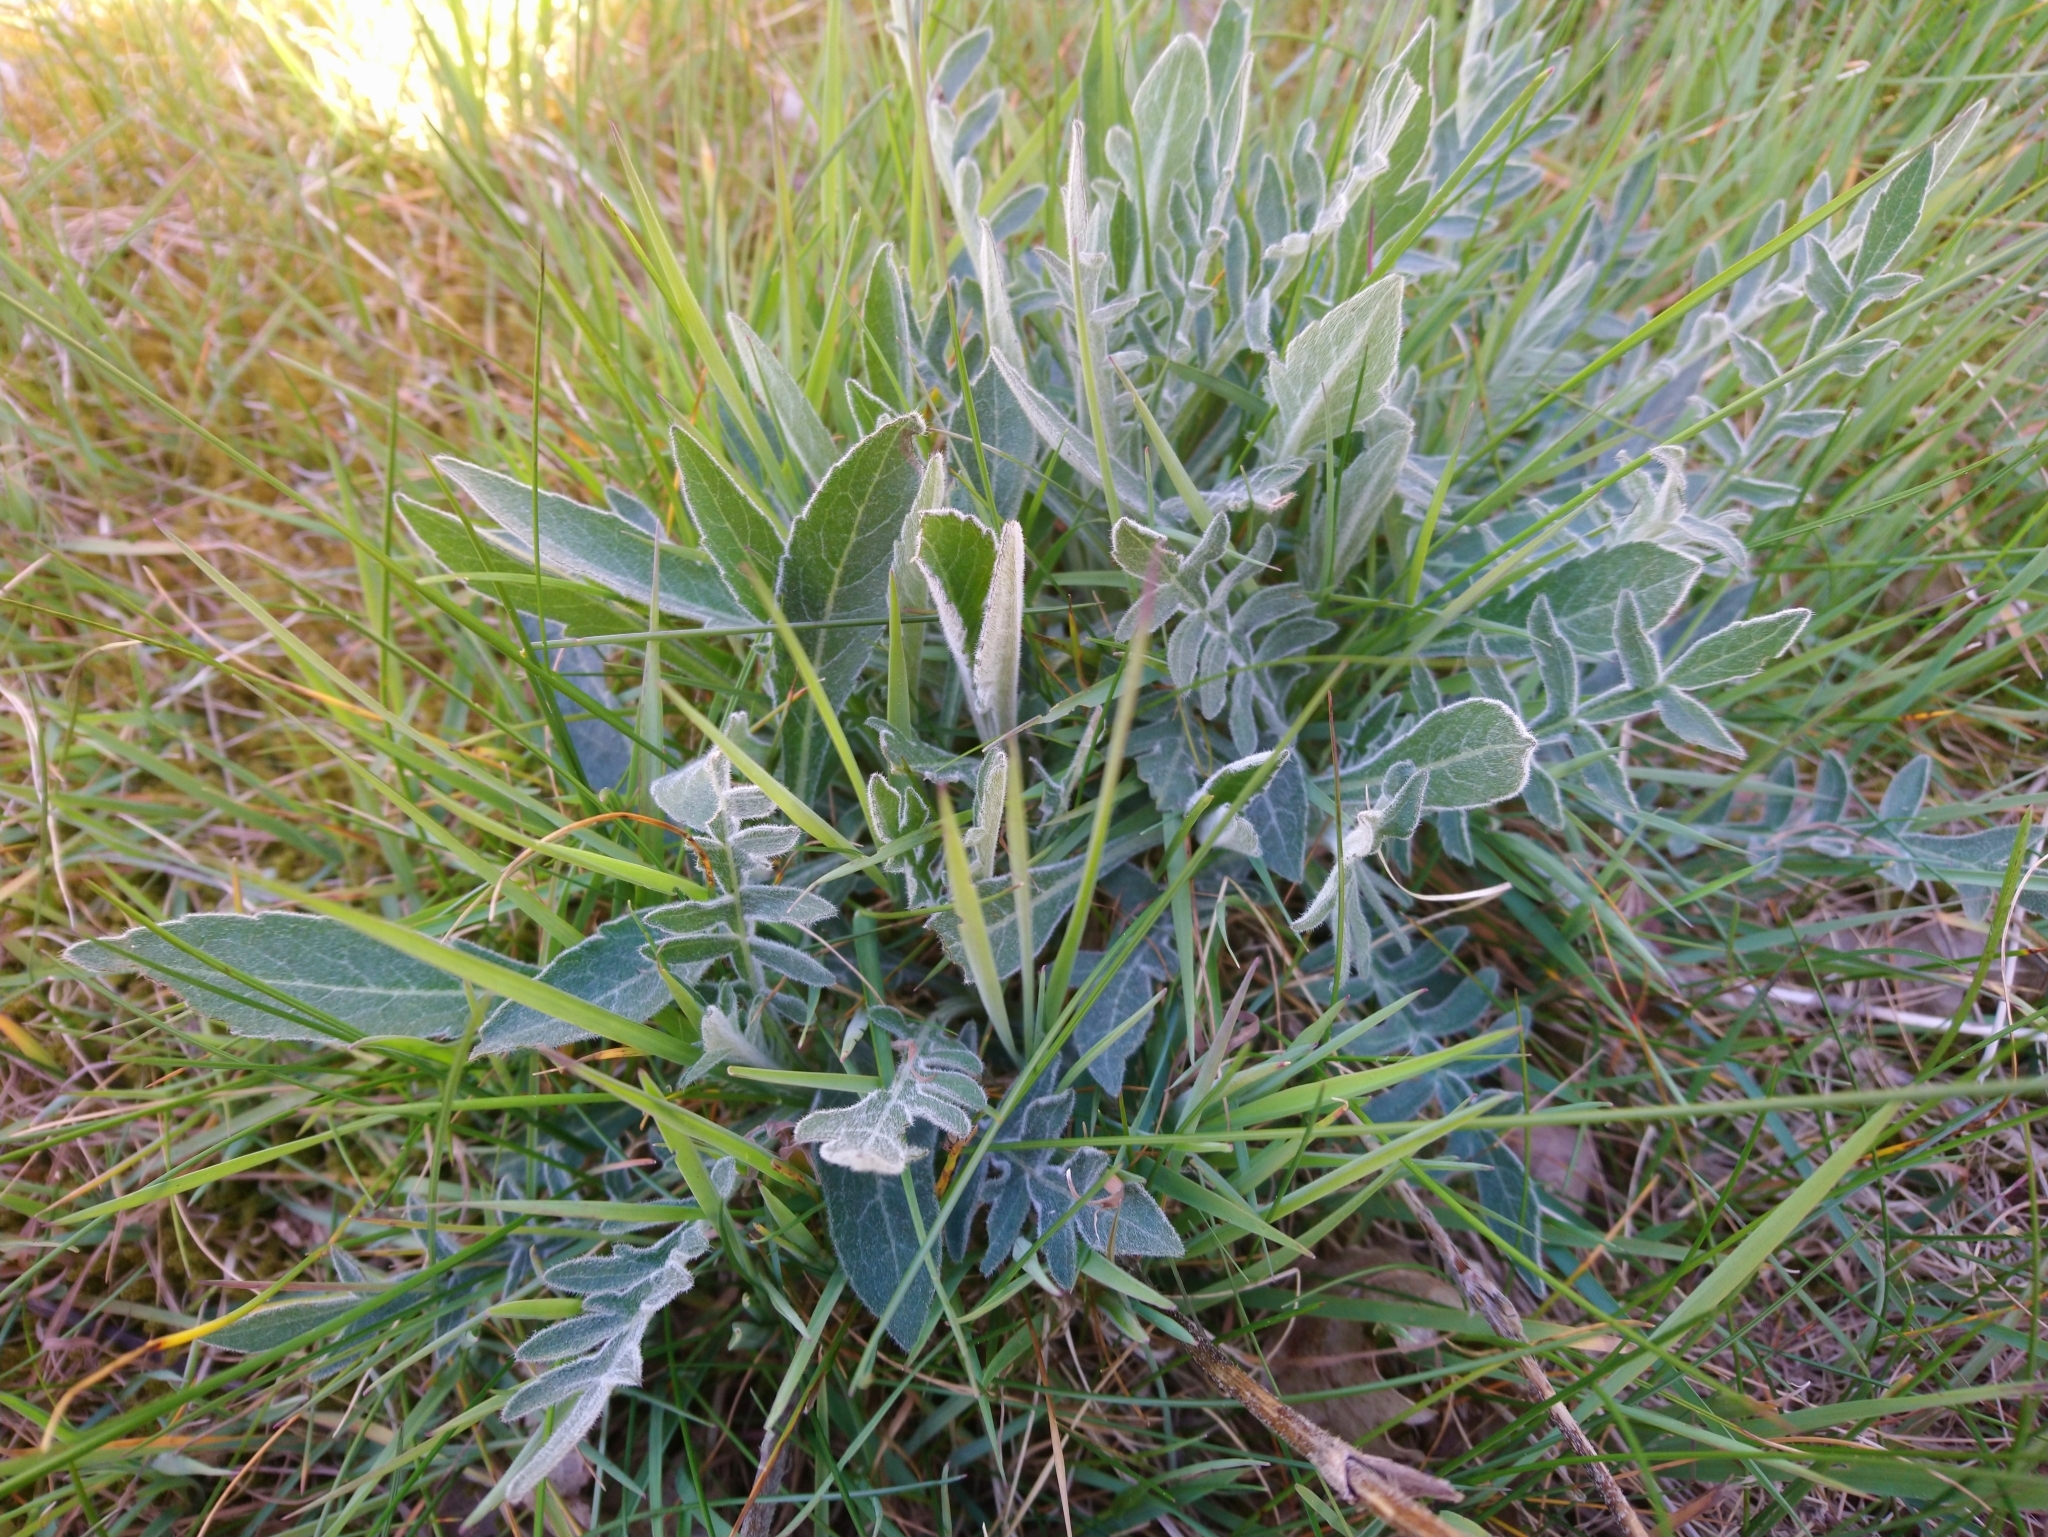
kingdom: Plantae
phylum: Tracheophyta
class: Magnoliopsida
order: Dipsacales
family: Caprifoliaceae
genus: Knautia
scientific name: Knautia arvensis
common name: Field scabiosa
